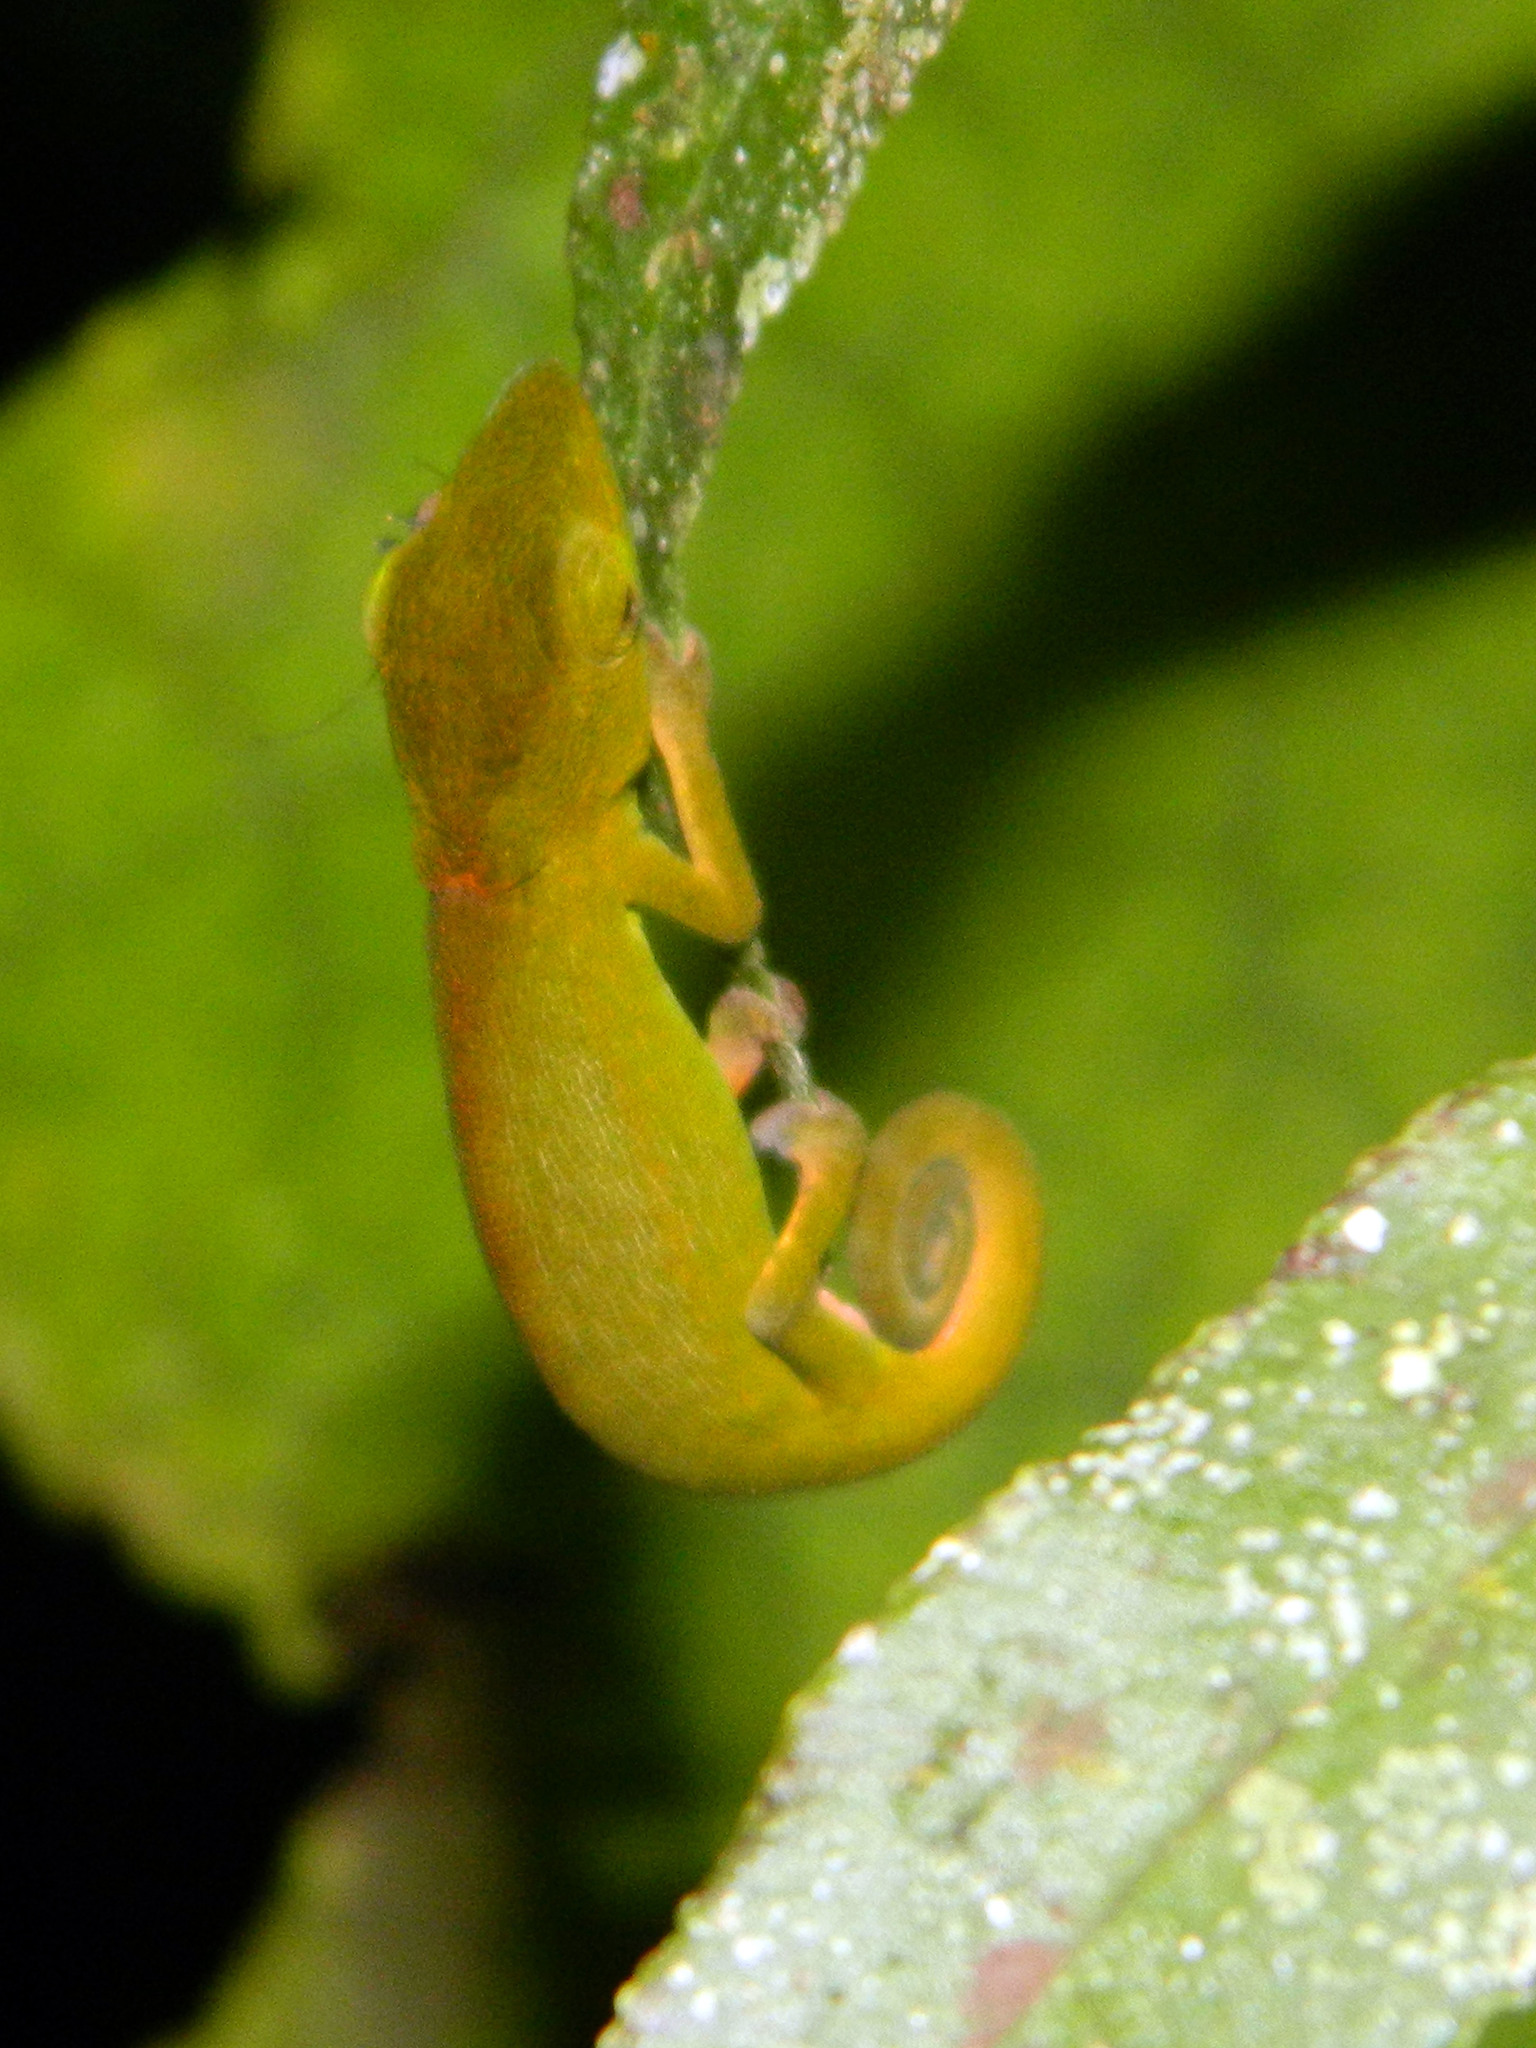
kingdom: Animalia
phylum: Chordata
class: Squamata
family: Chamaeleonidae
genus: Calumma
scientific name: Calumma glawi
